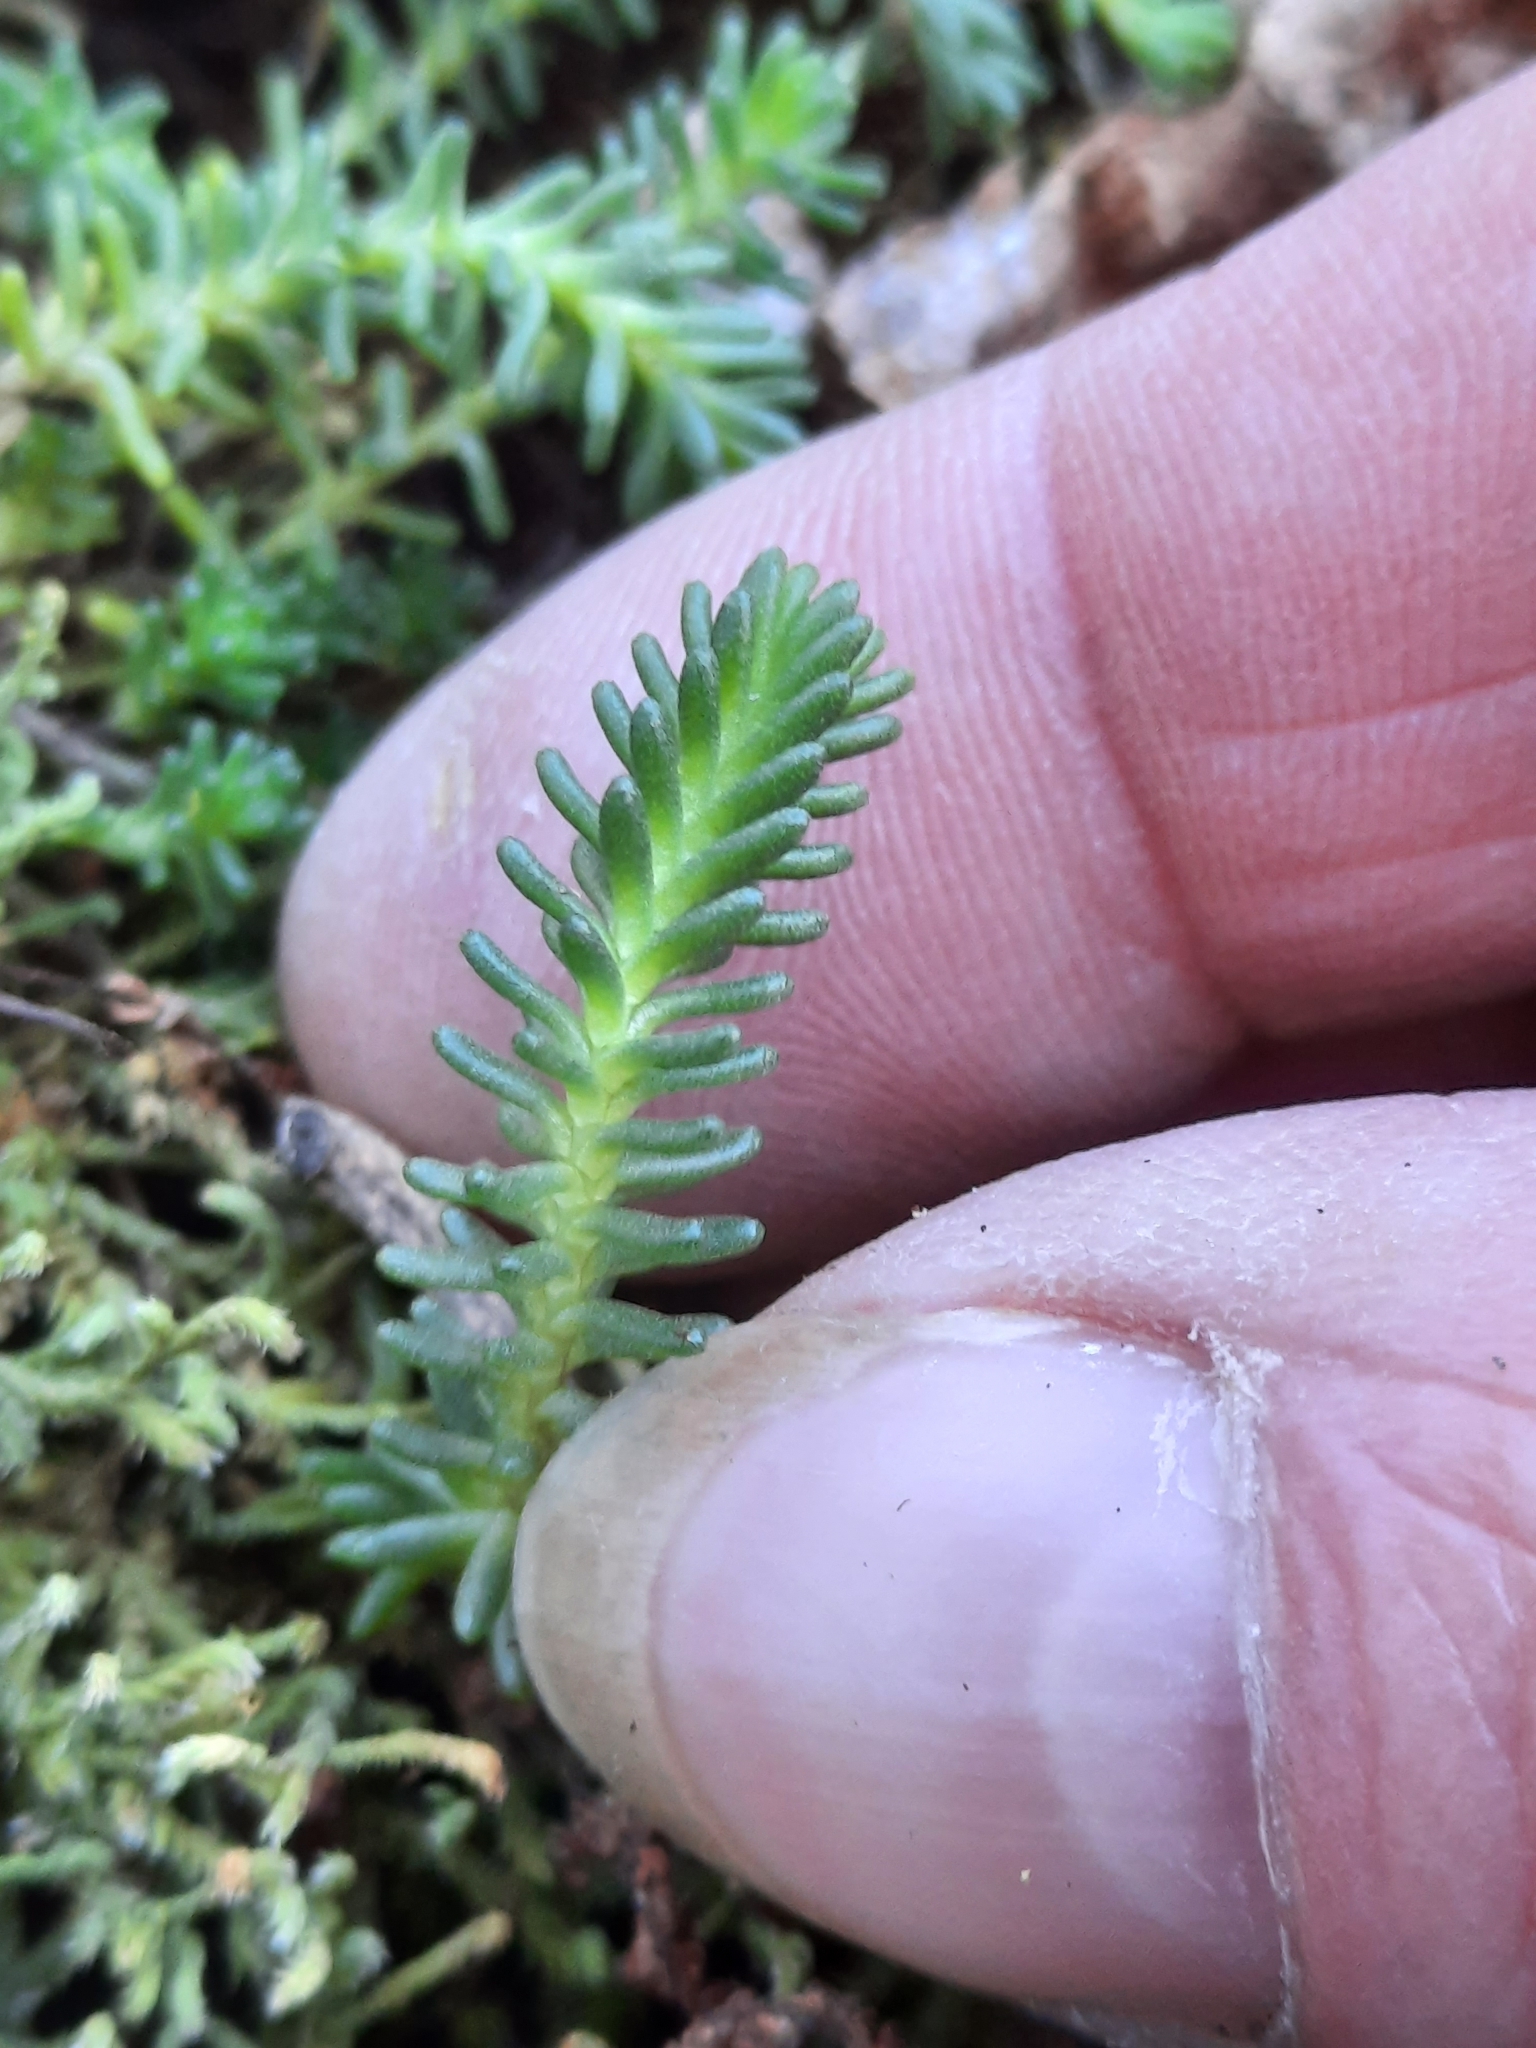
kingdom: Plantae
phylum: Tracheophyta
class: Magnoliopsida
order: Saxifragales
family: Crassulaceae
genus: Sedum
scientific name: Sedum sexangulare
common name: Tasteless stonecrop
